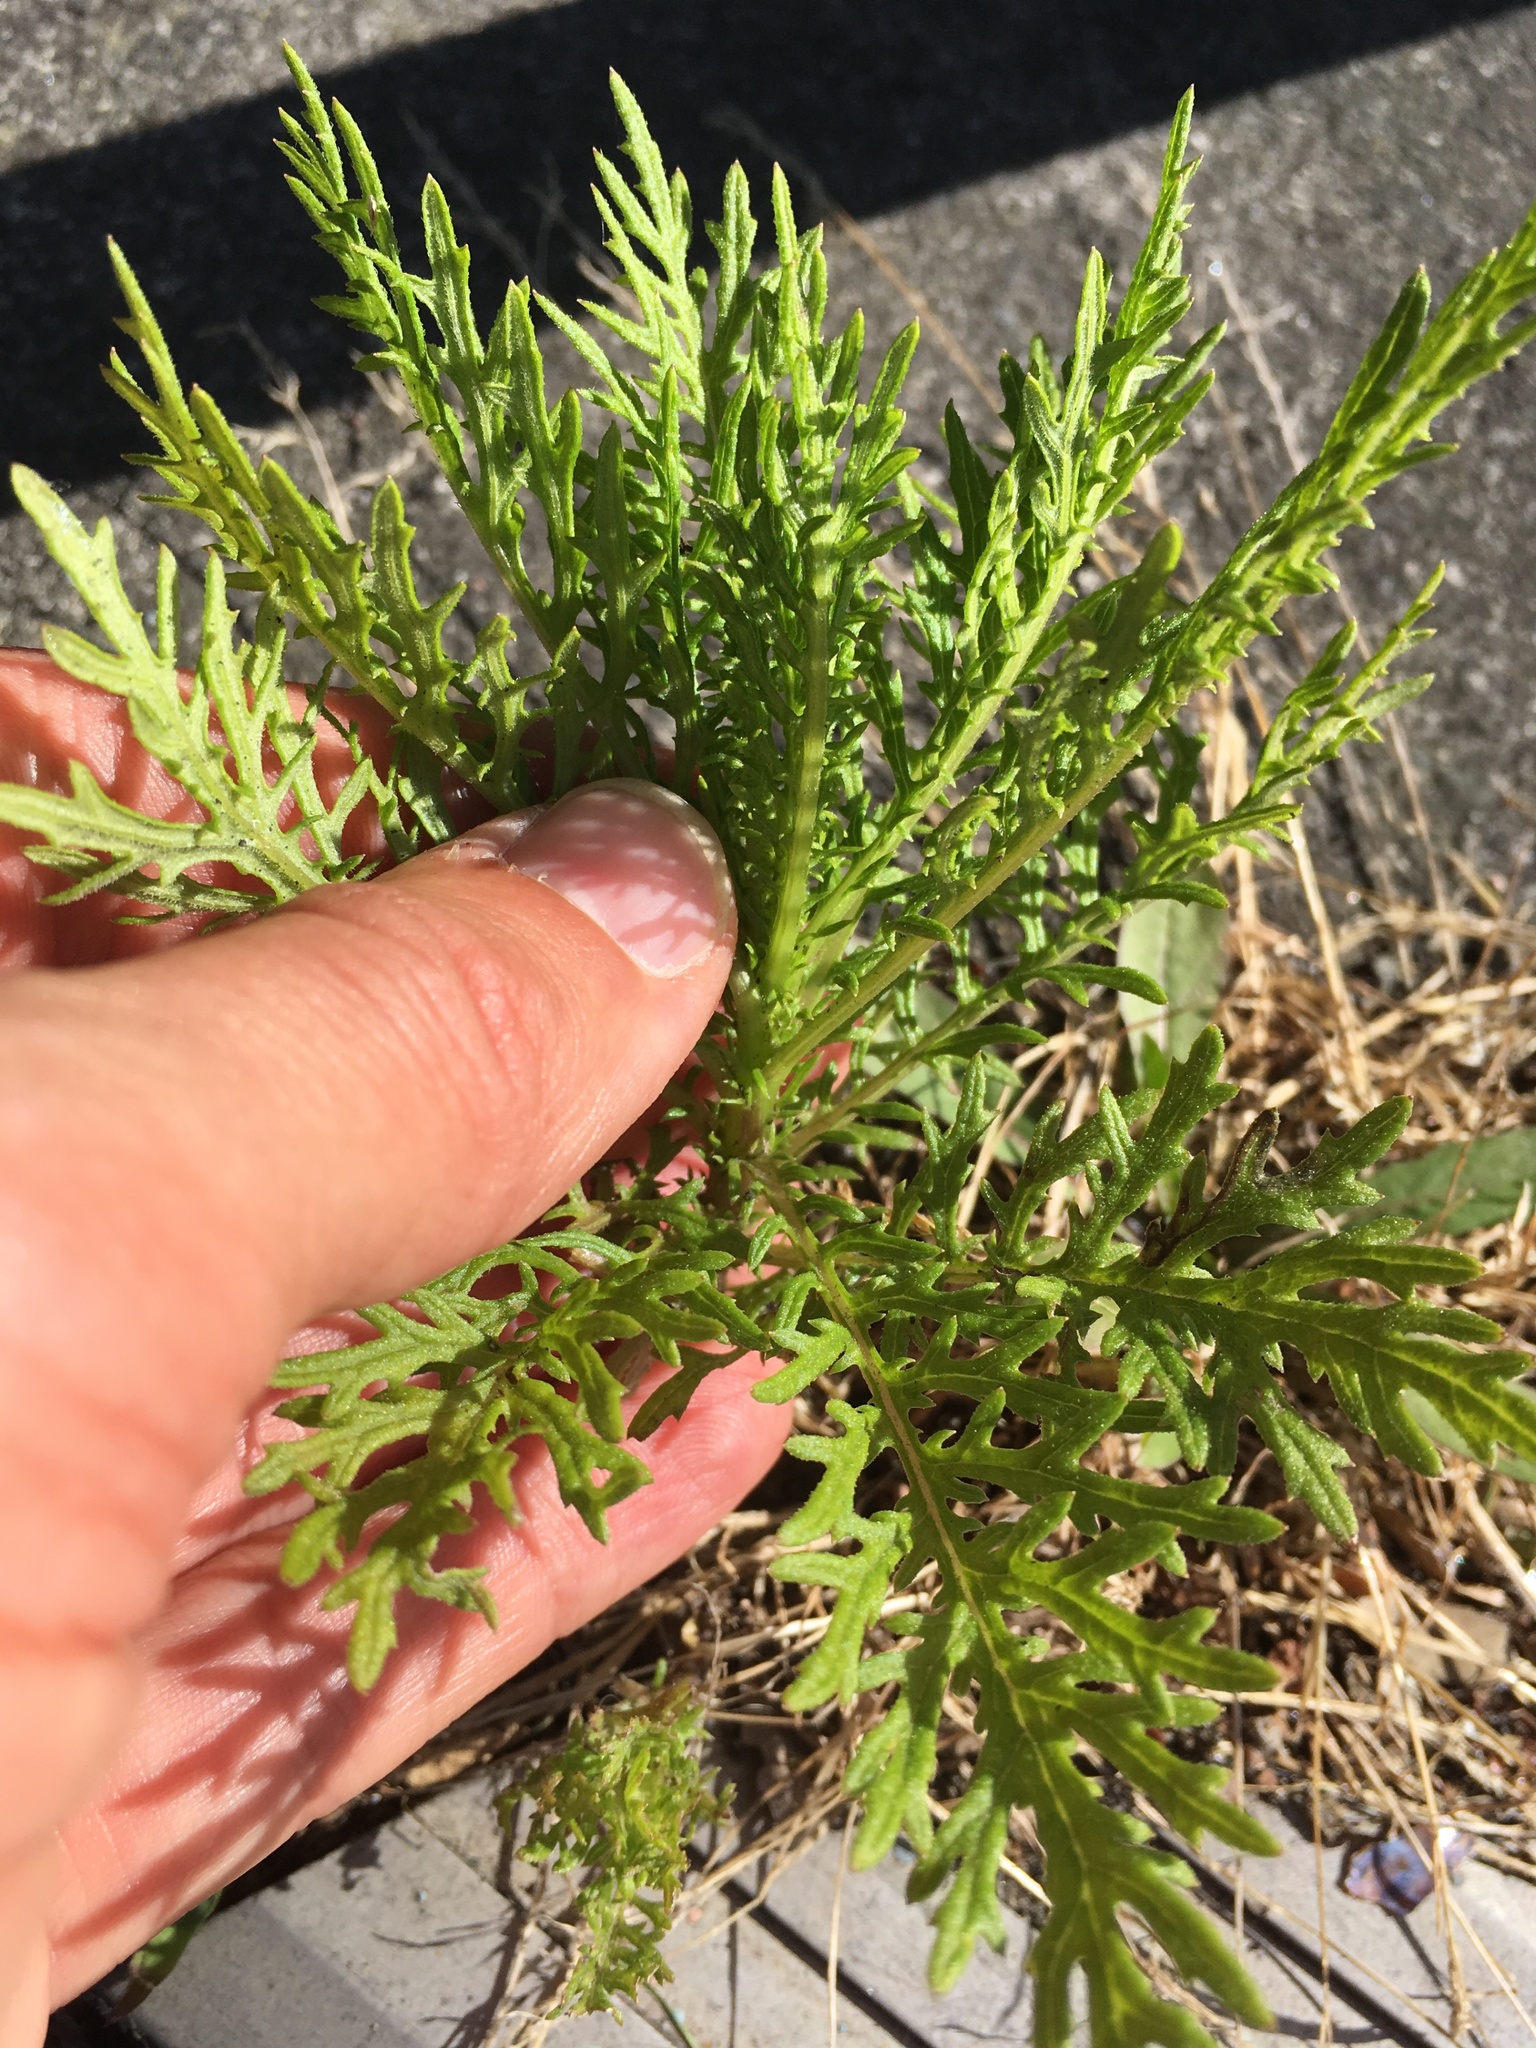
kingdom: Plantae
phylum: Tracheophyta
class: Magnoliopsida
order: Asterales
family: Asteraceae
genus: Senecio
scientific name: Senecio bipinnatisectus
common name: Australian fireweed
